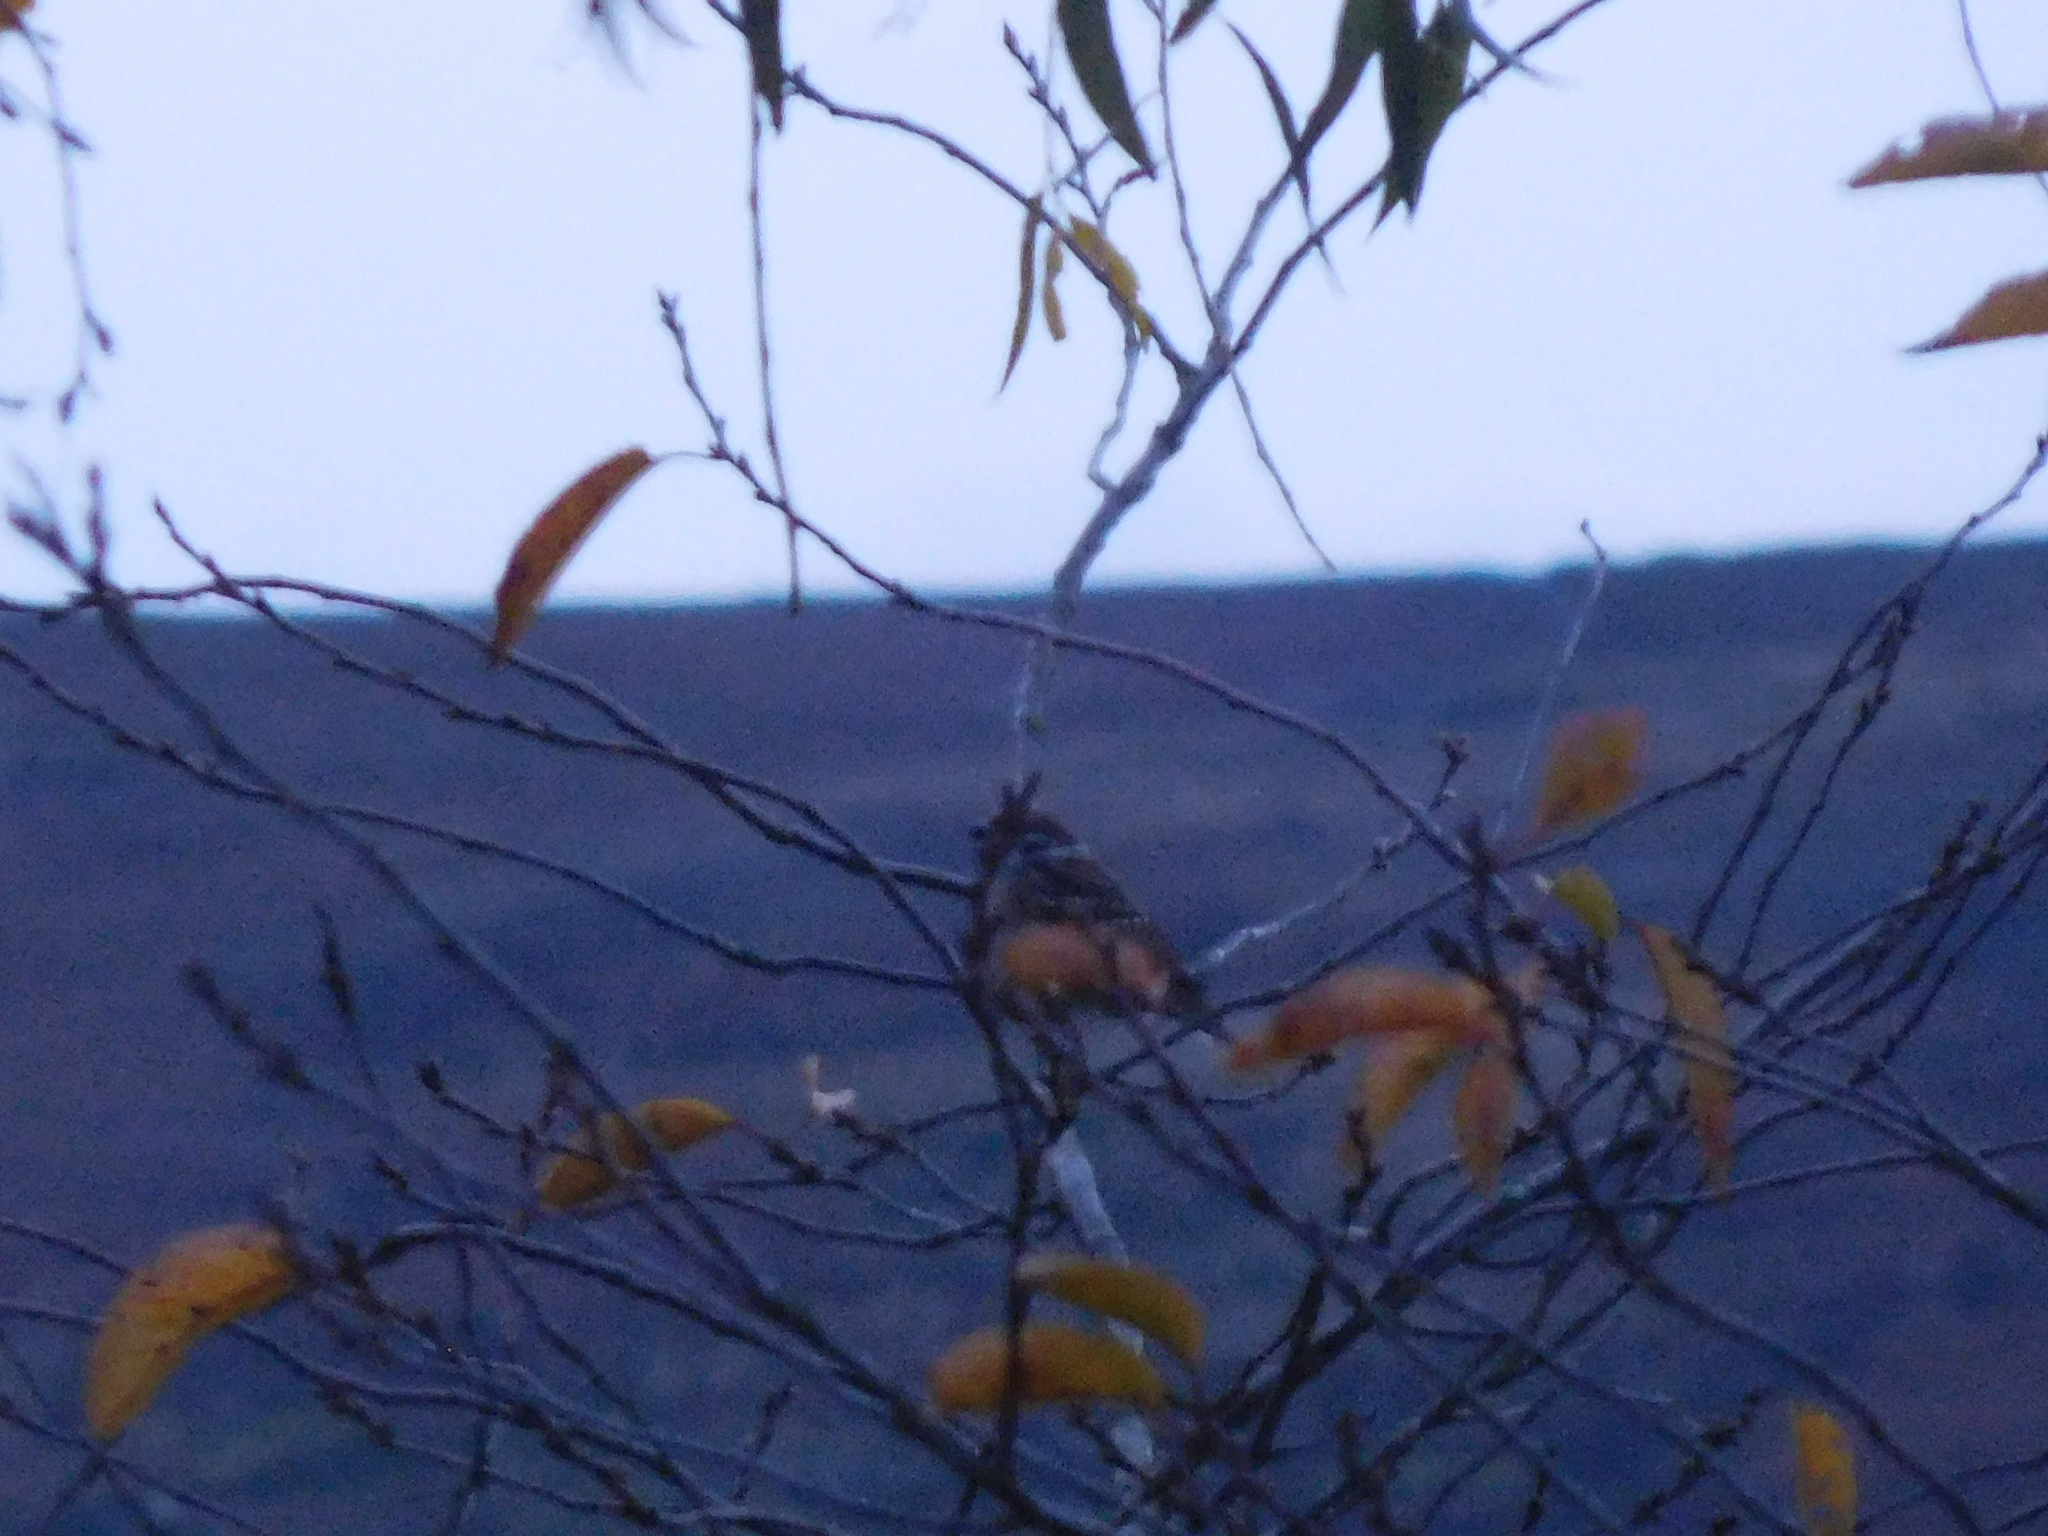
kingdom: Animalia
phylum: Chordata
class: Aves
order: Passeriformes
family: Passeridae
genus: Passer
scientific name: Passer montanus
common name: Eurasian tree sparrow
